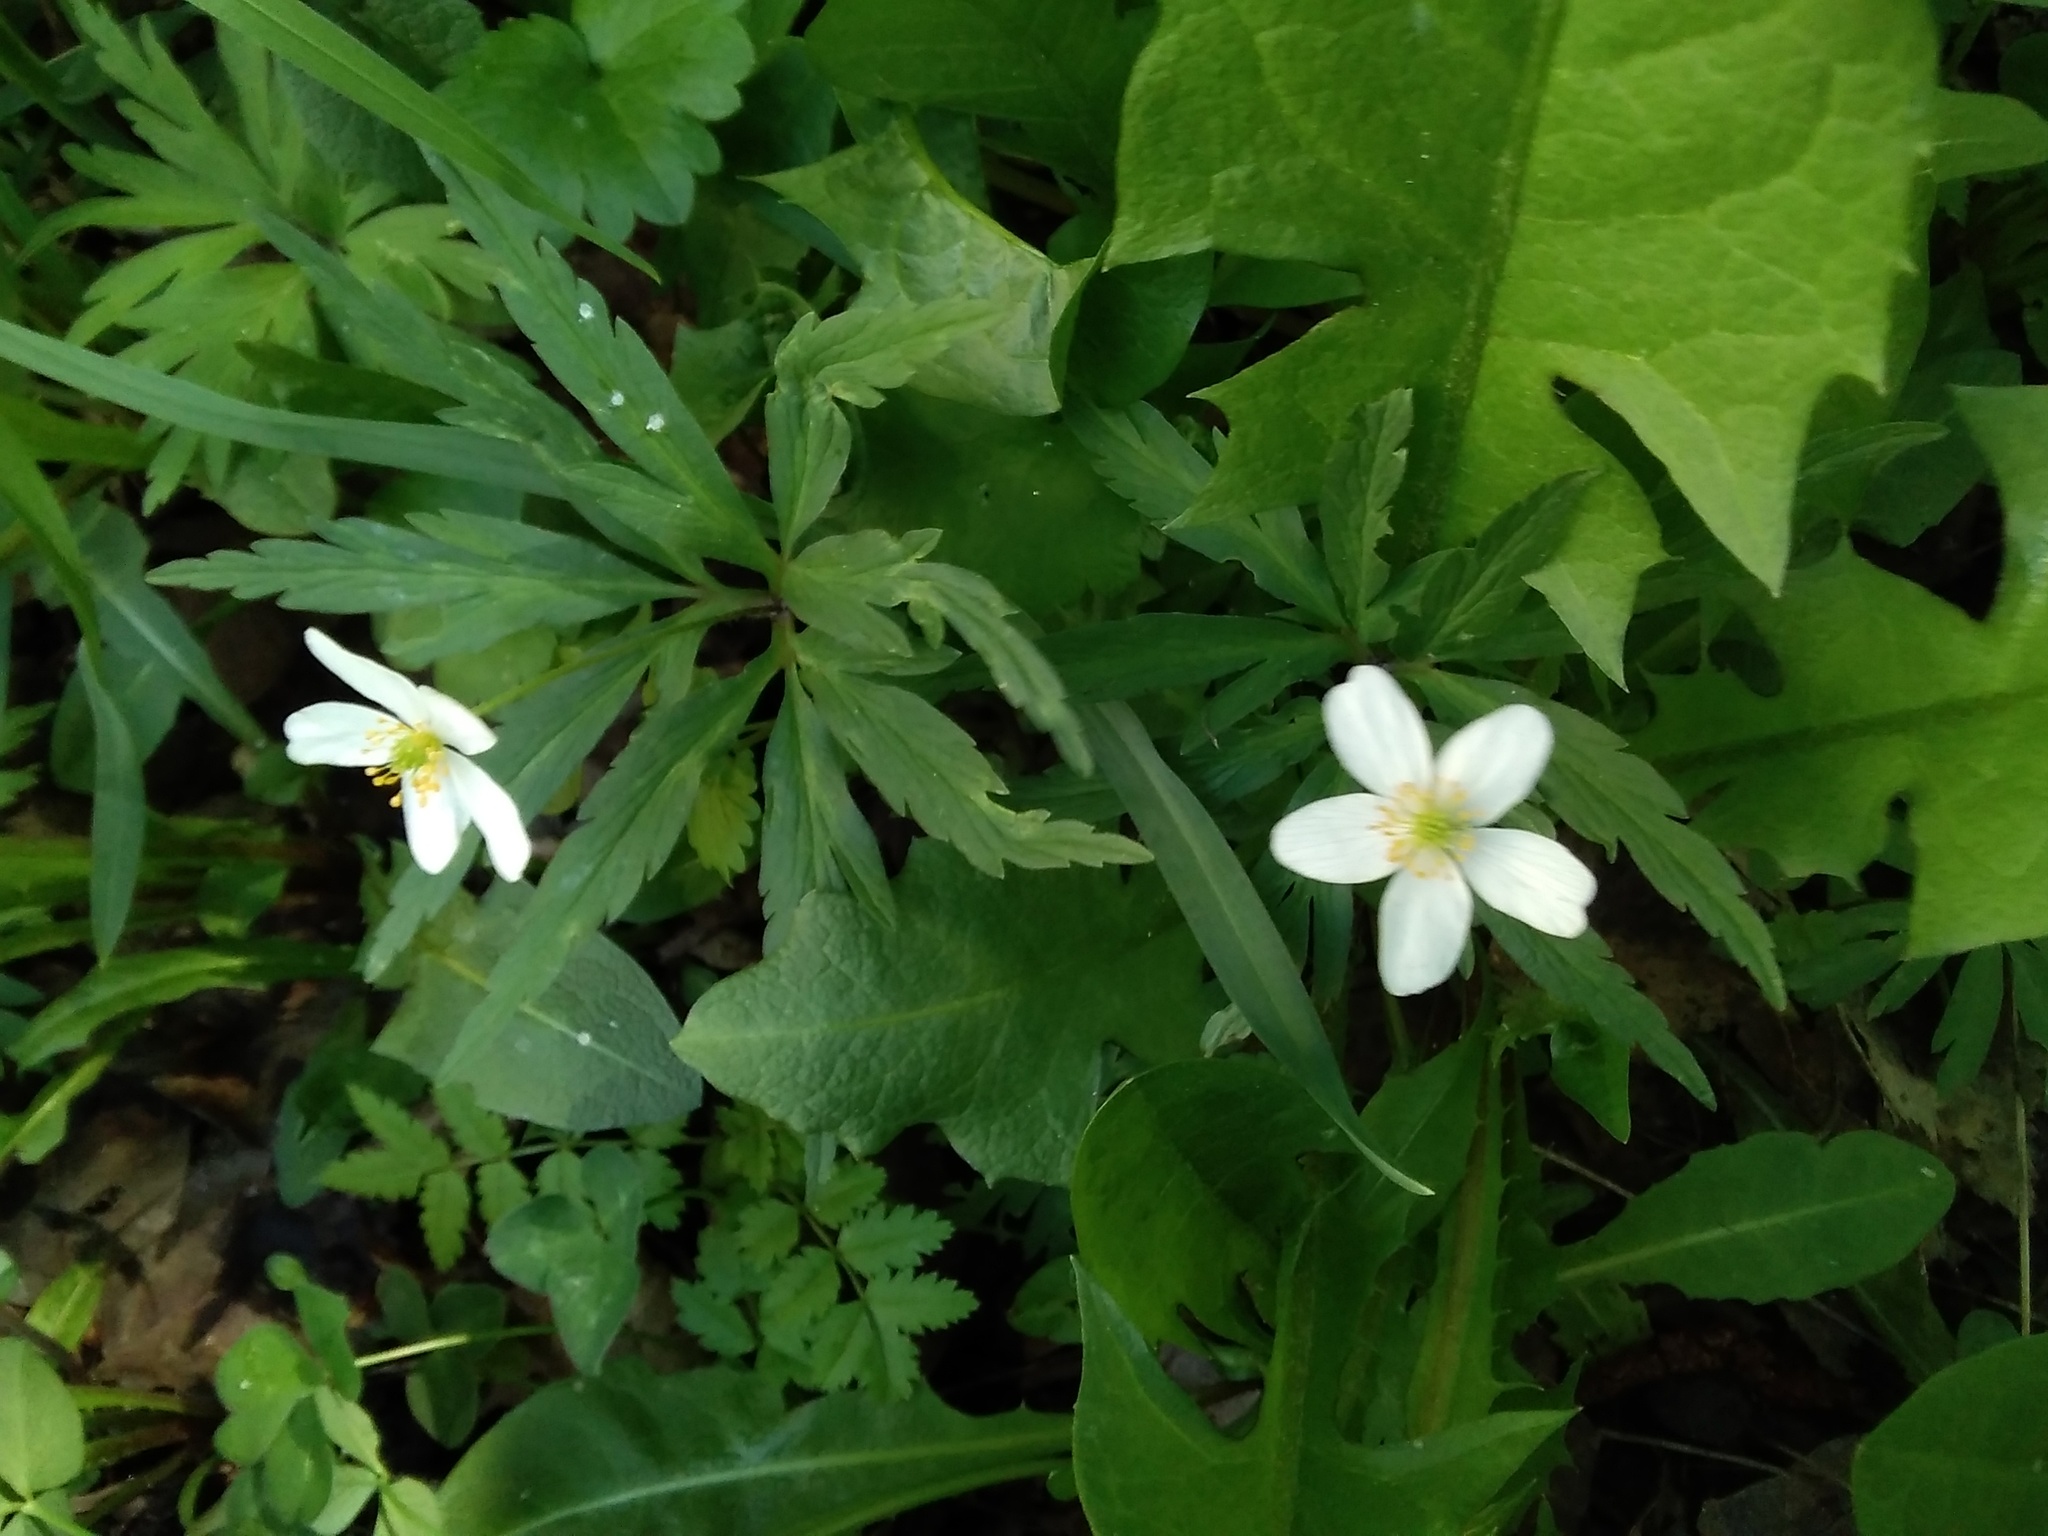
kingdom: Plantae
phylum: Tracheophyta
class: Magnoliopsida
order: Ranunculales
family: Ranunculaceae
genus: Anemone
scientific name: Anemone caerulea
